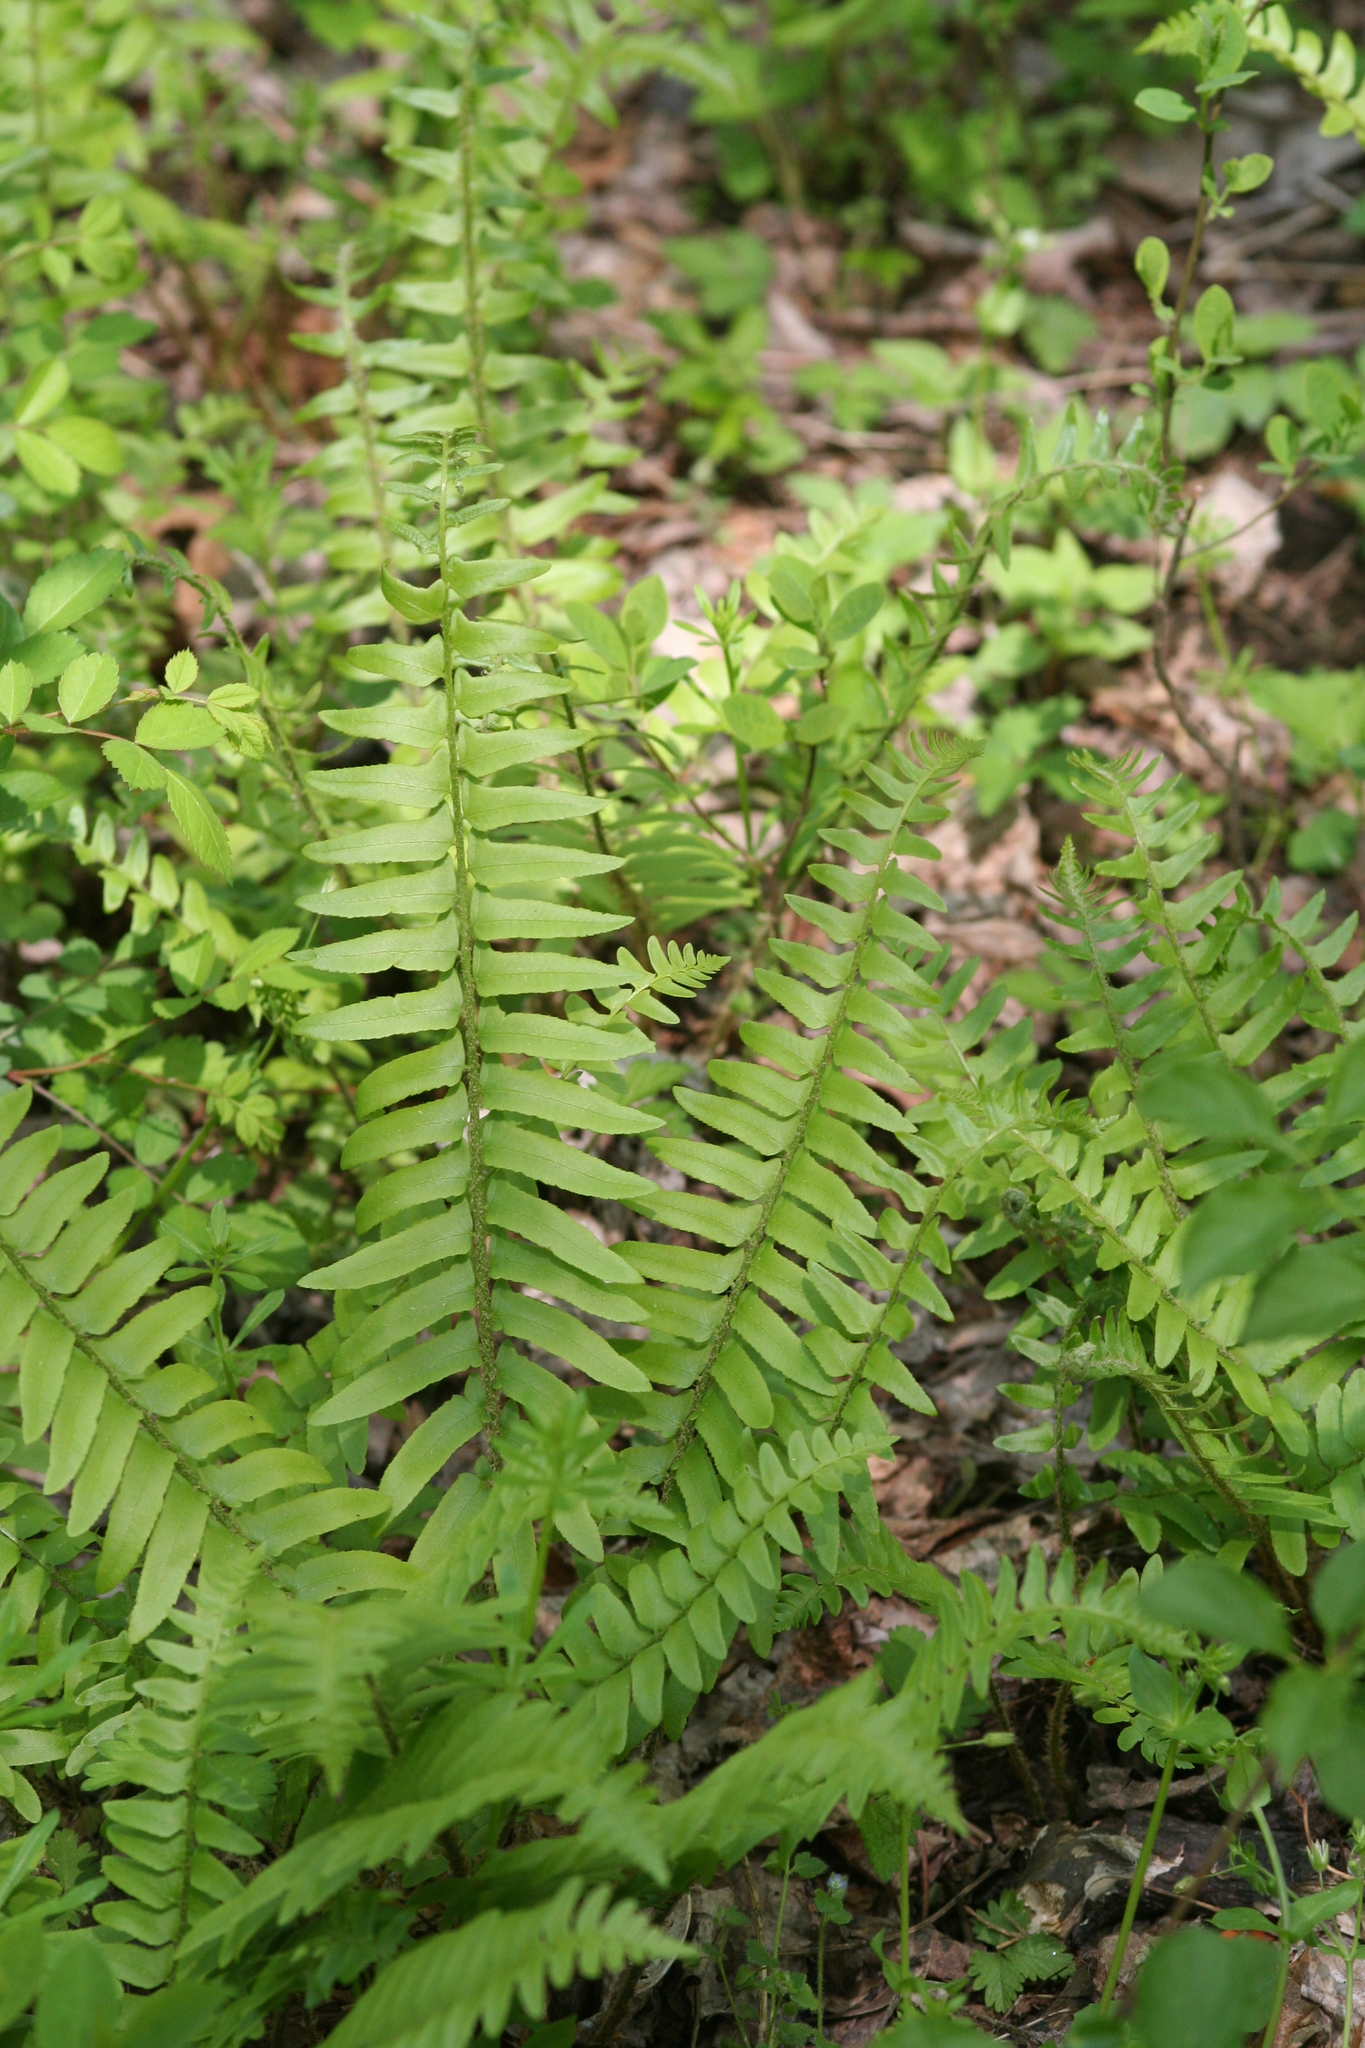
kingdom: Plantae
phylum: Tracheophyta
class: Polypodiopsida
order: Polypodiales
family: Dryopteridaceae
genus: Polystichum
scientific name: Polystichum acrostichoides
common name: Christmas fern
